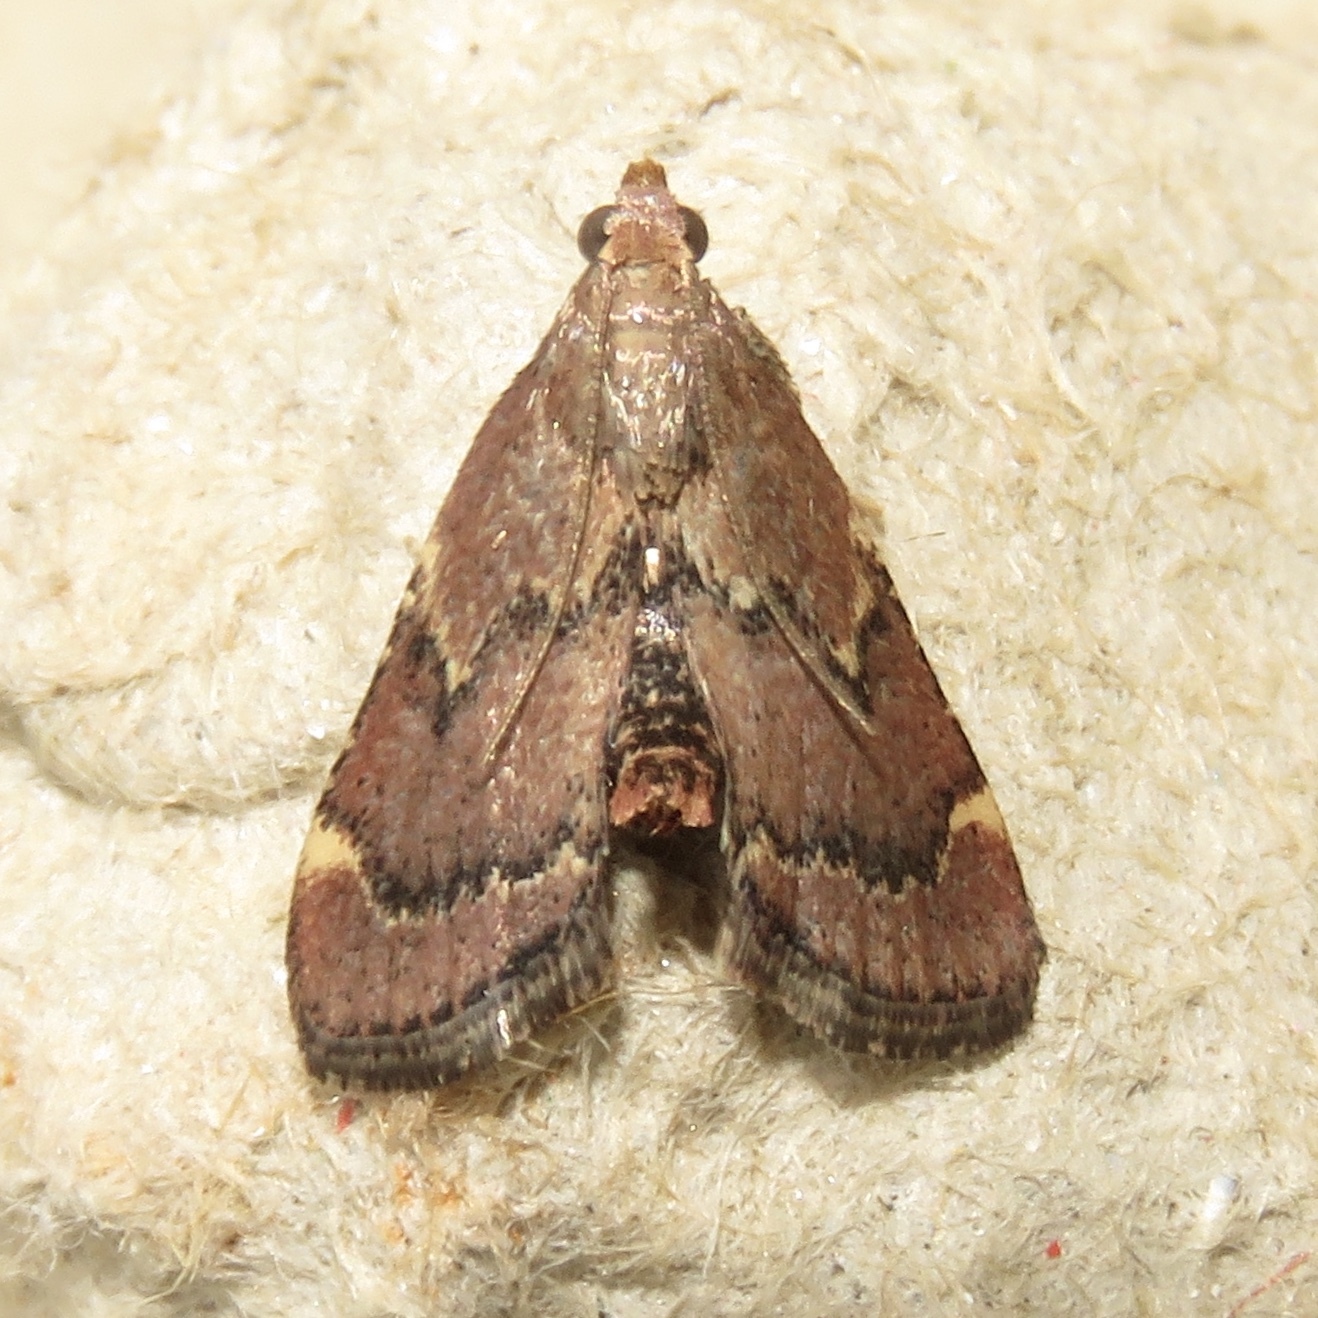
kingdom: Animalia
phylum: Arthropoda
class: Insecta
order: Lepidoptera
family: Pyralidae
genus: Hypsopygia
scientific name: Hypsopygia intermedialis
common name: Red-shawled moth
